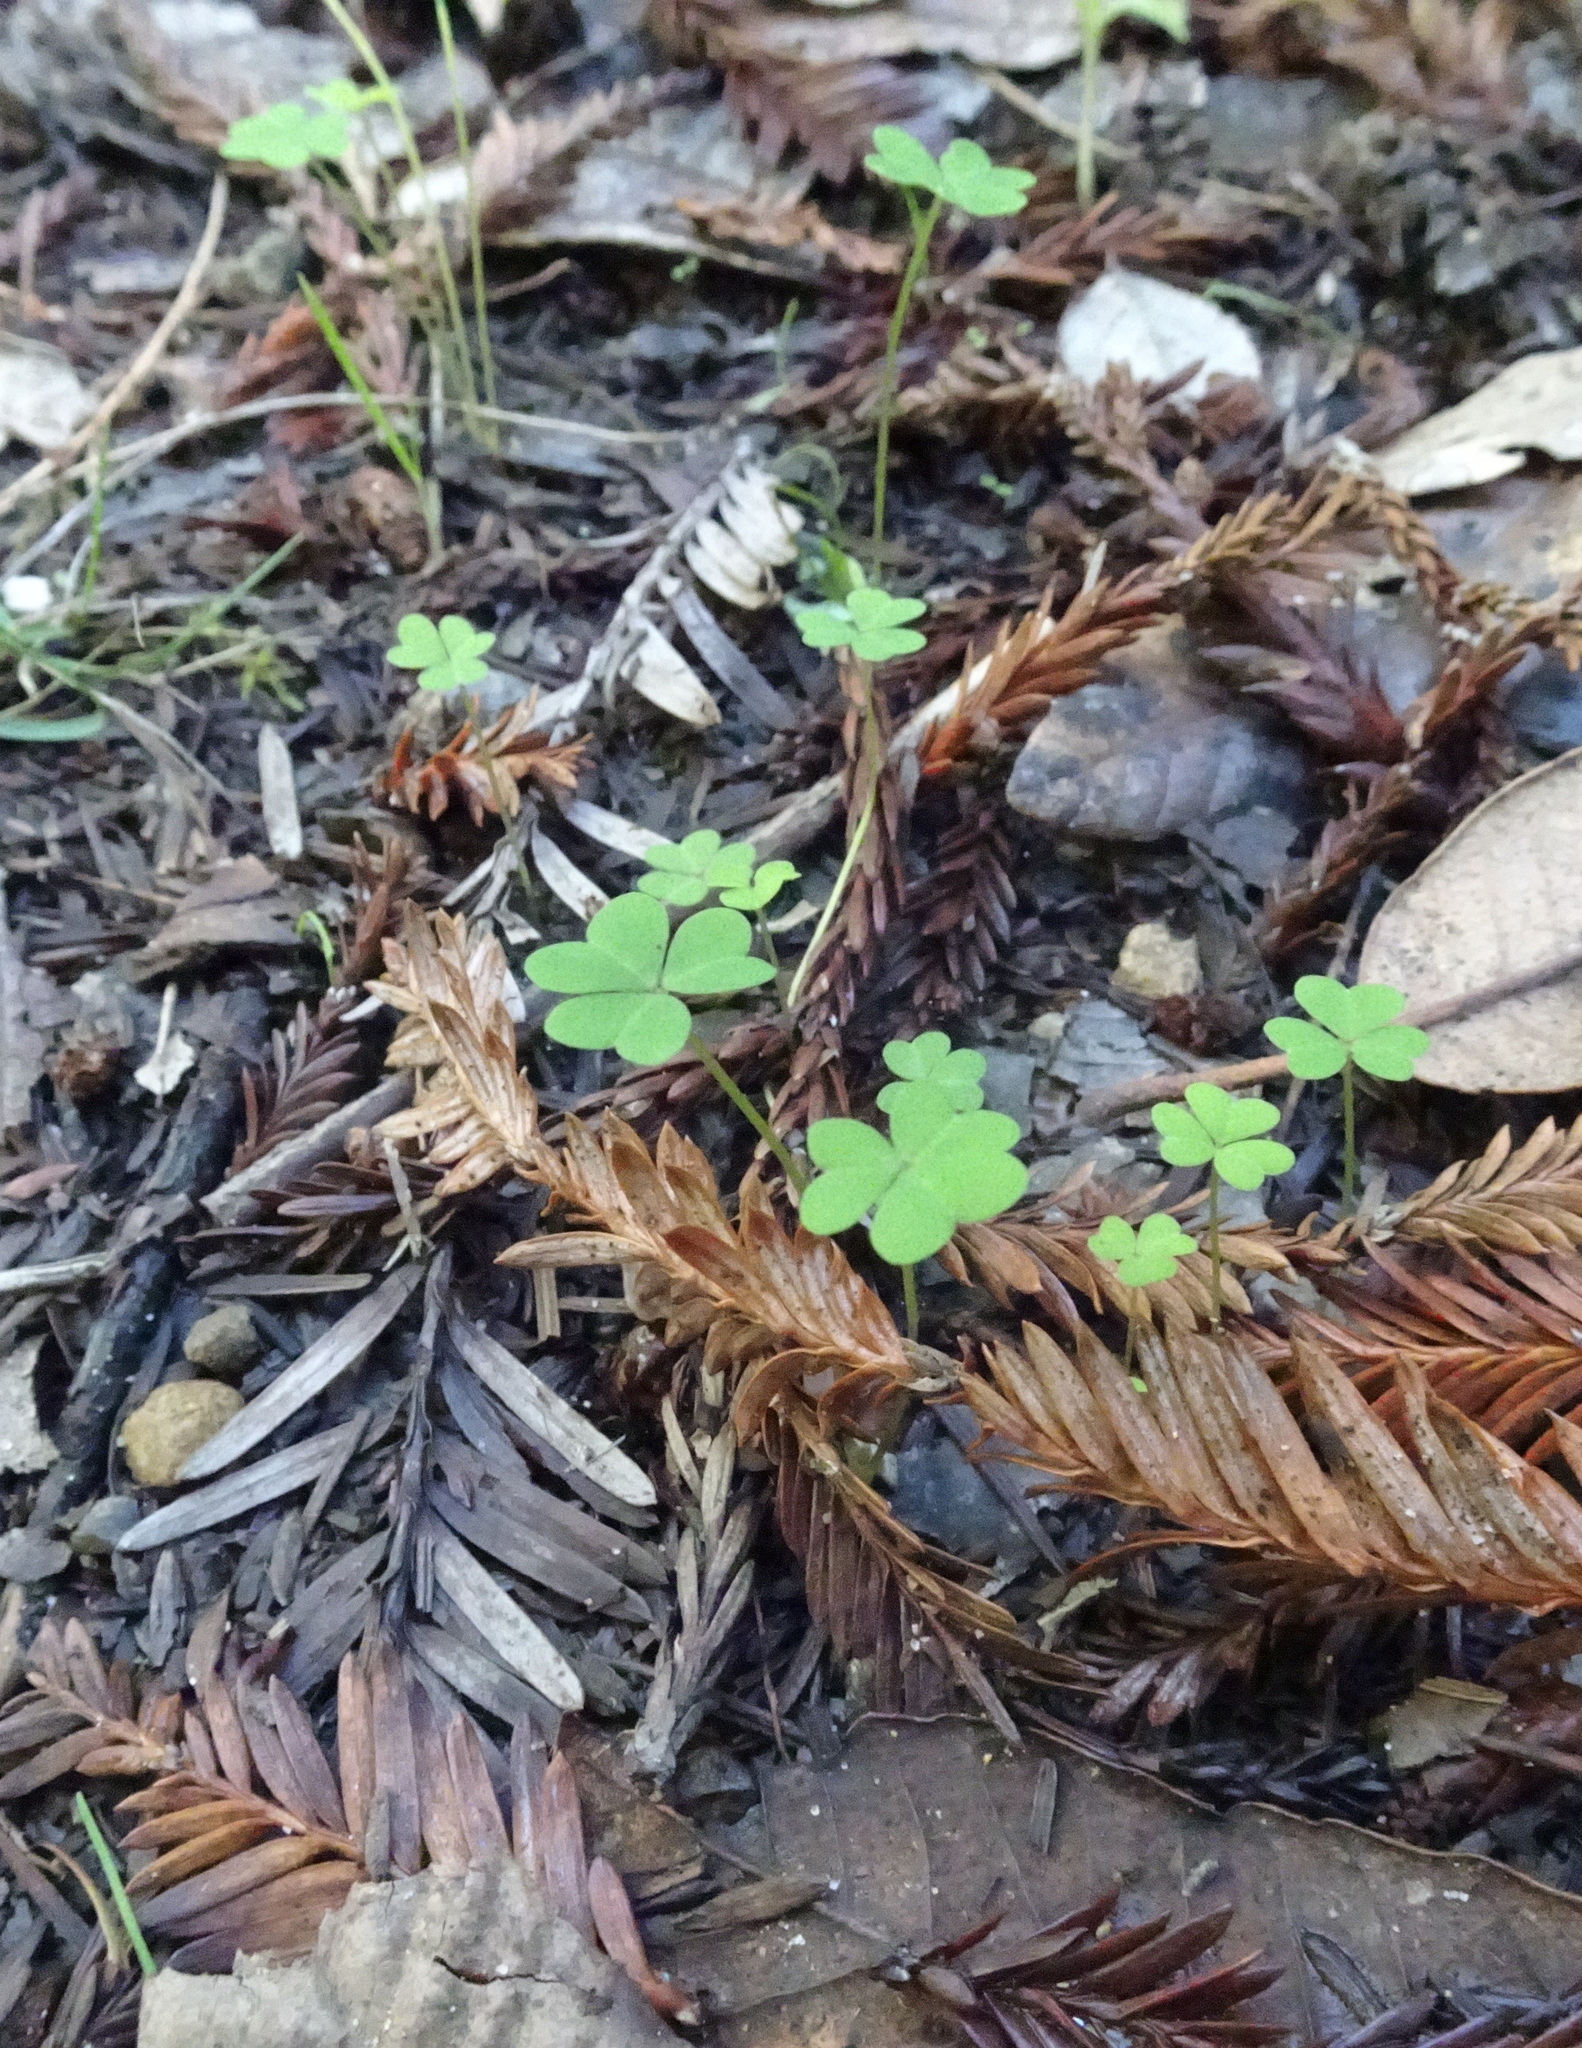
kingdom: Plantae
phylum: Tracheophyta
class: Magnoliopsida
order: Oxalidales
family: Oxalidaceae
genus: Oxalis
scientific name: Oxalis pes-caprae
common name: Bermuda-buttercup
